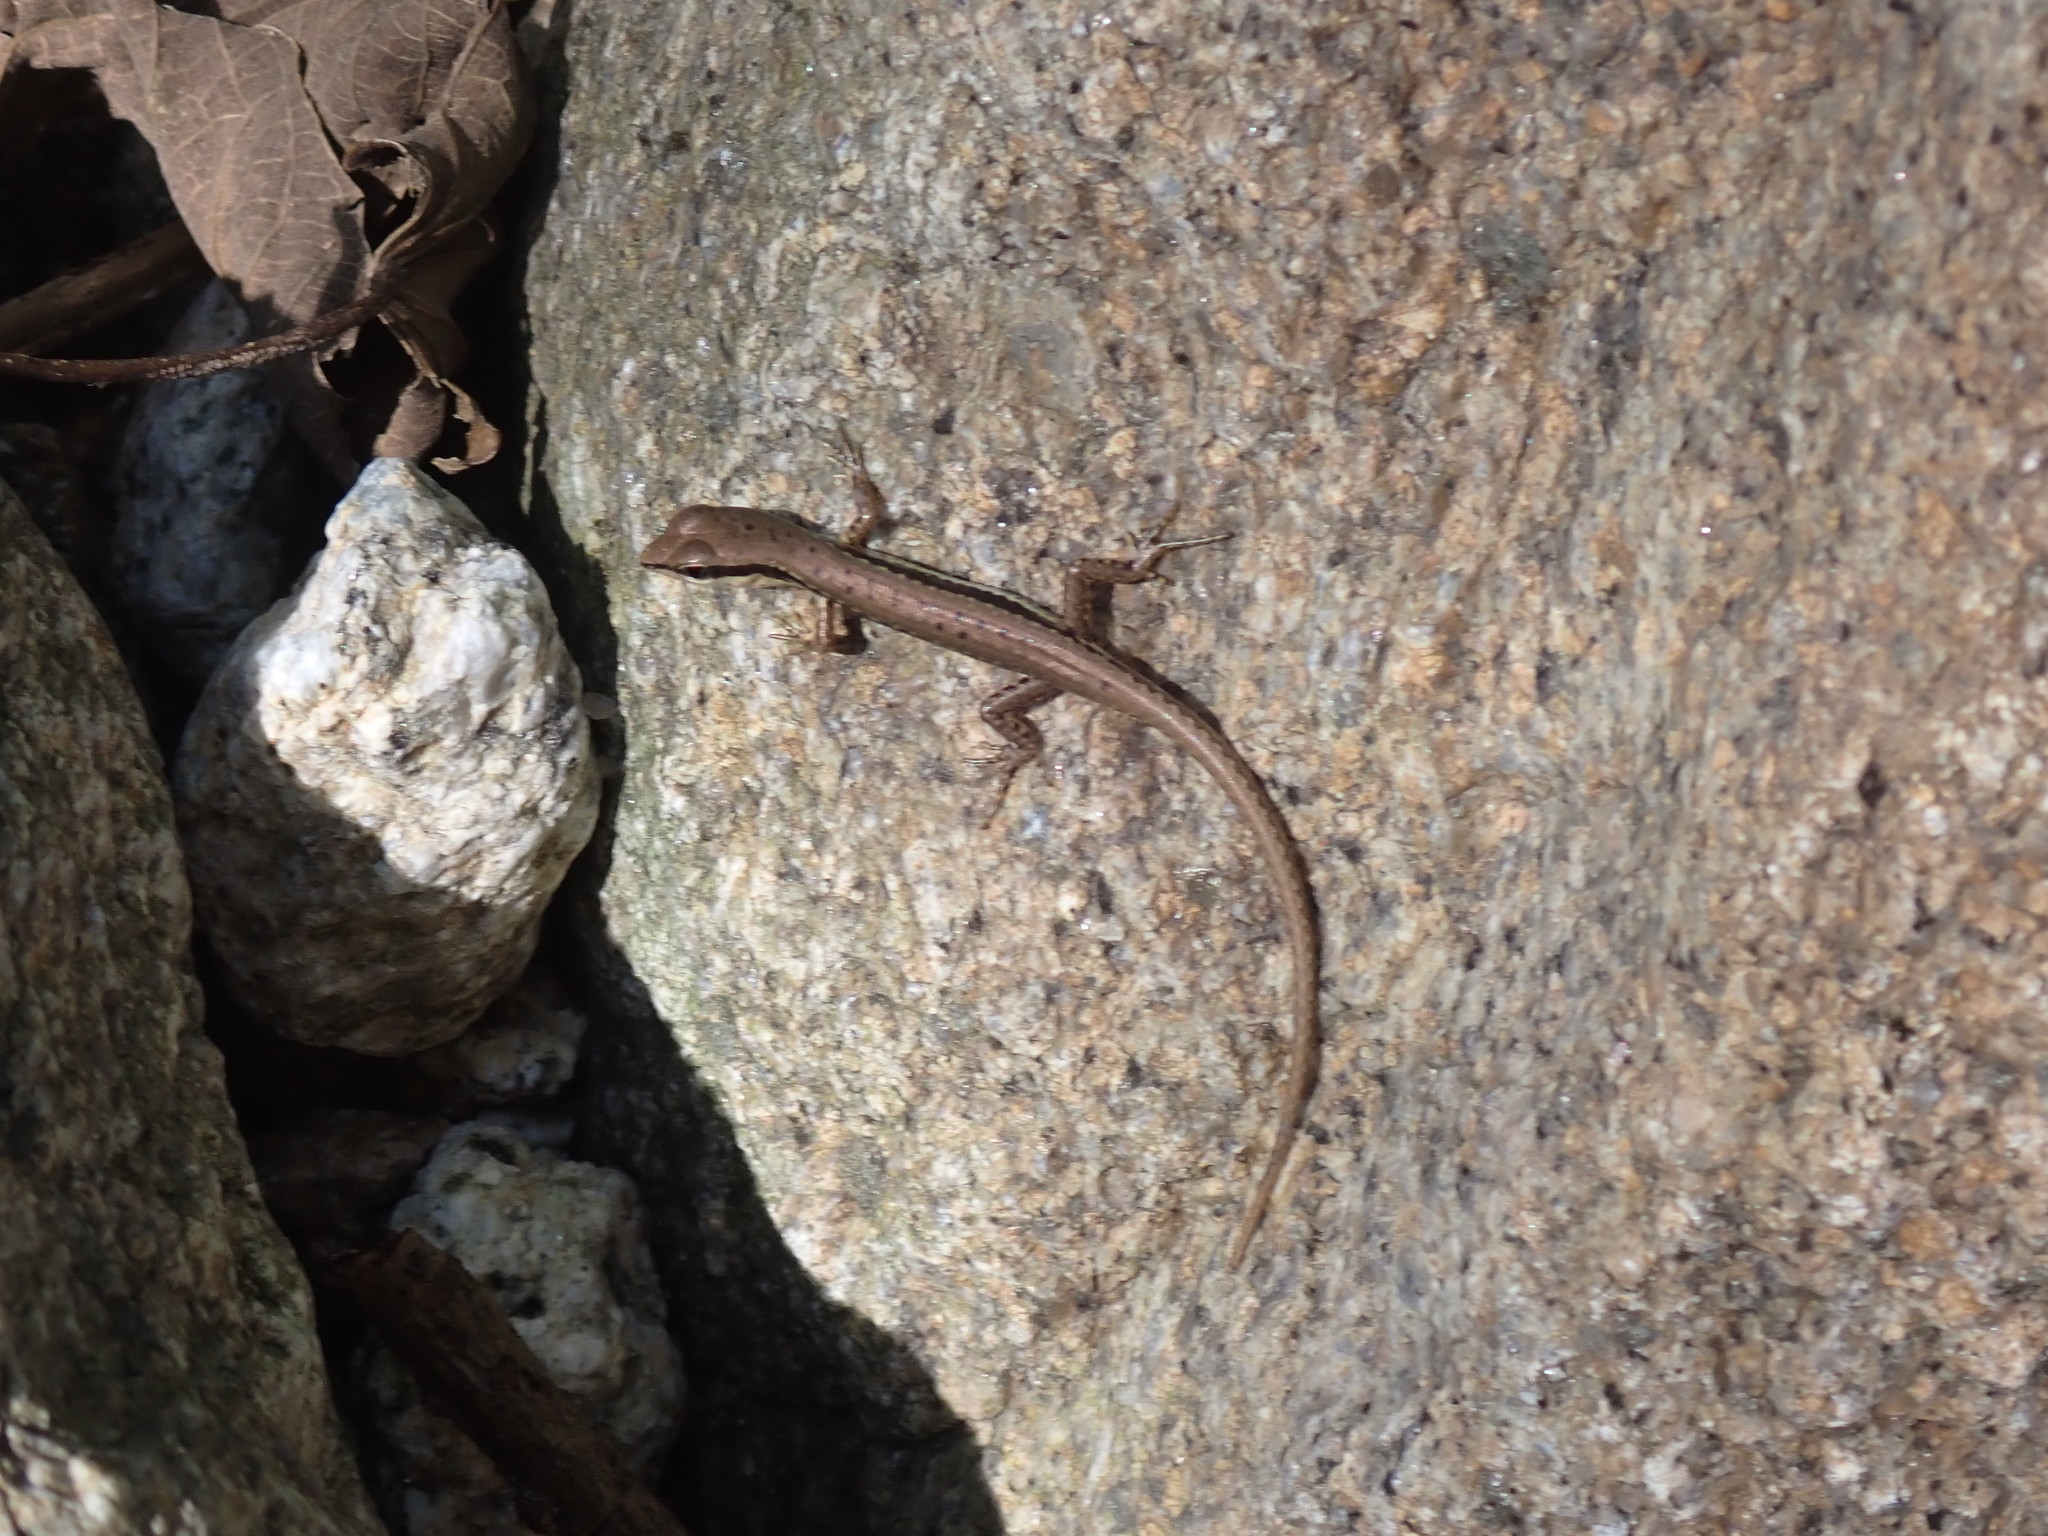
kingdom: Animalia
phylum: Chordata
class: Squamata
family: Scincidae
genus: Sphenomorphus
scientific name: Sphenomorphus maculatus
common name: Maculated forest skink
